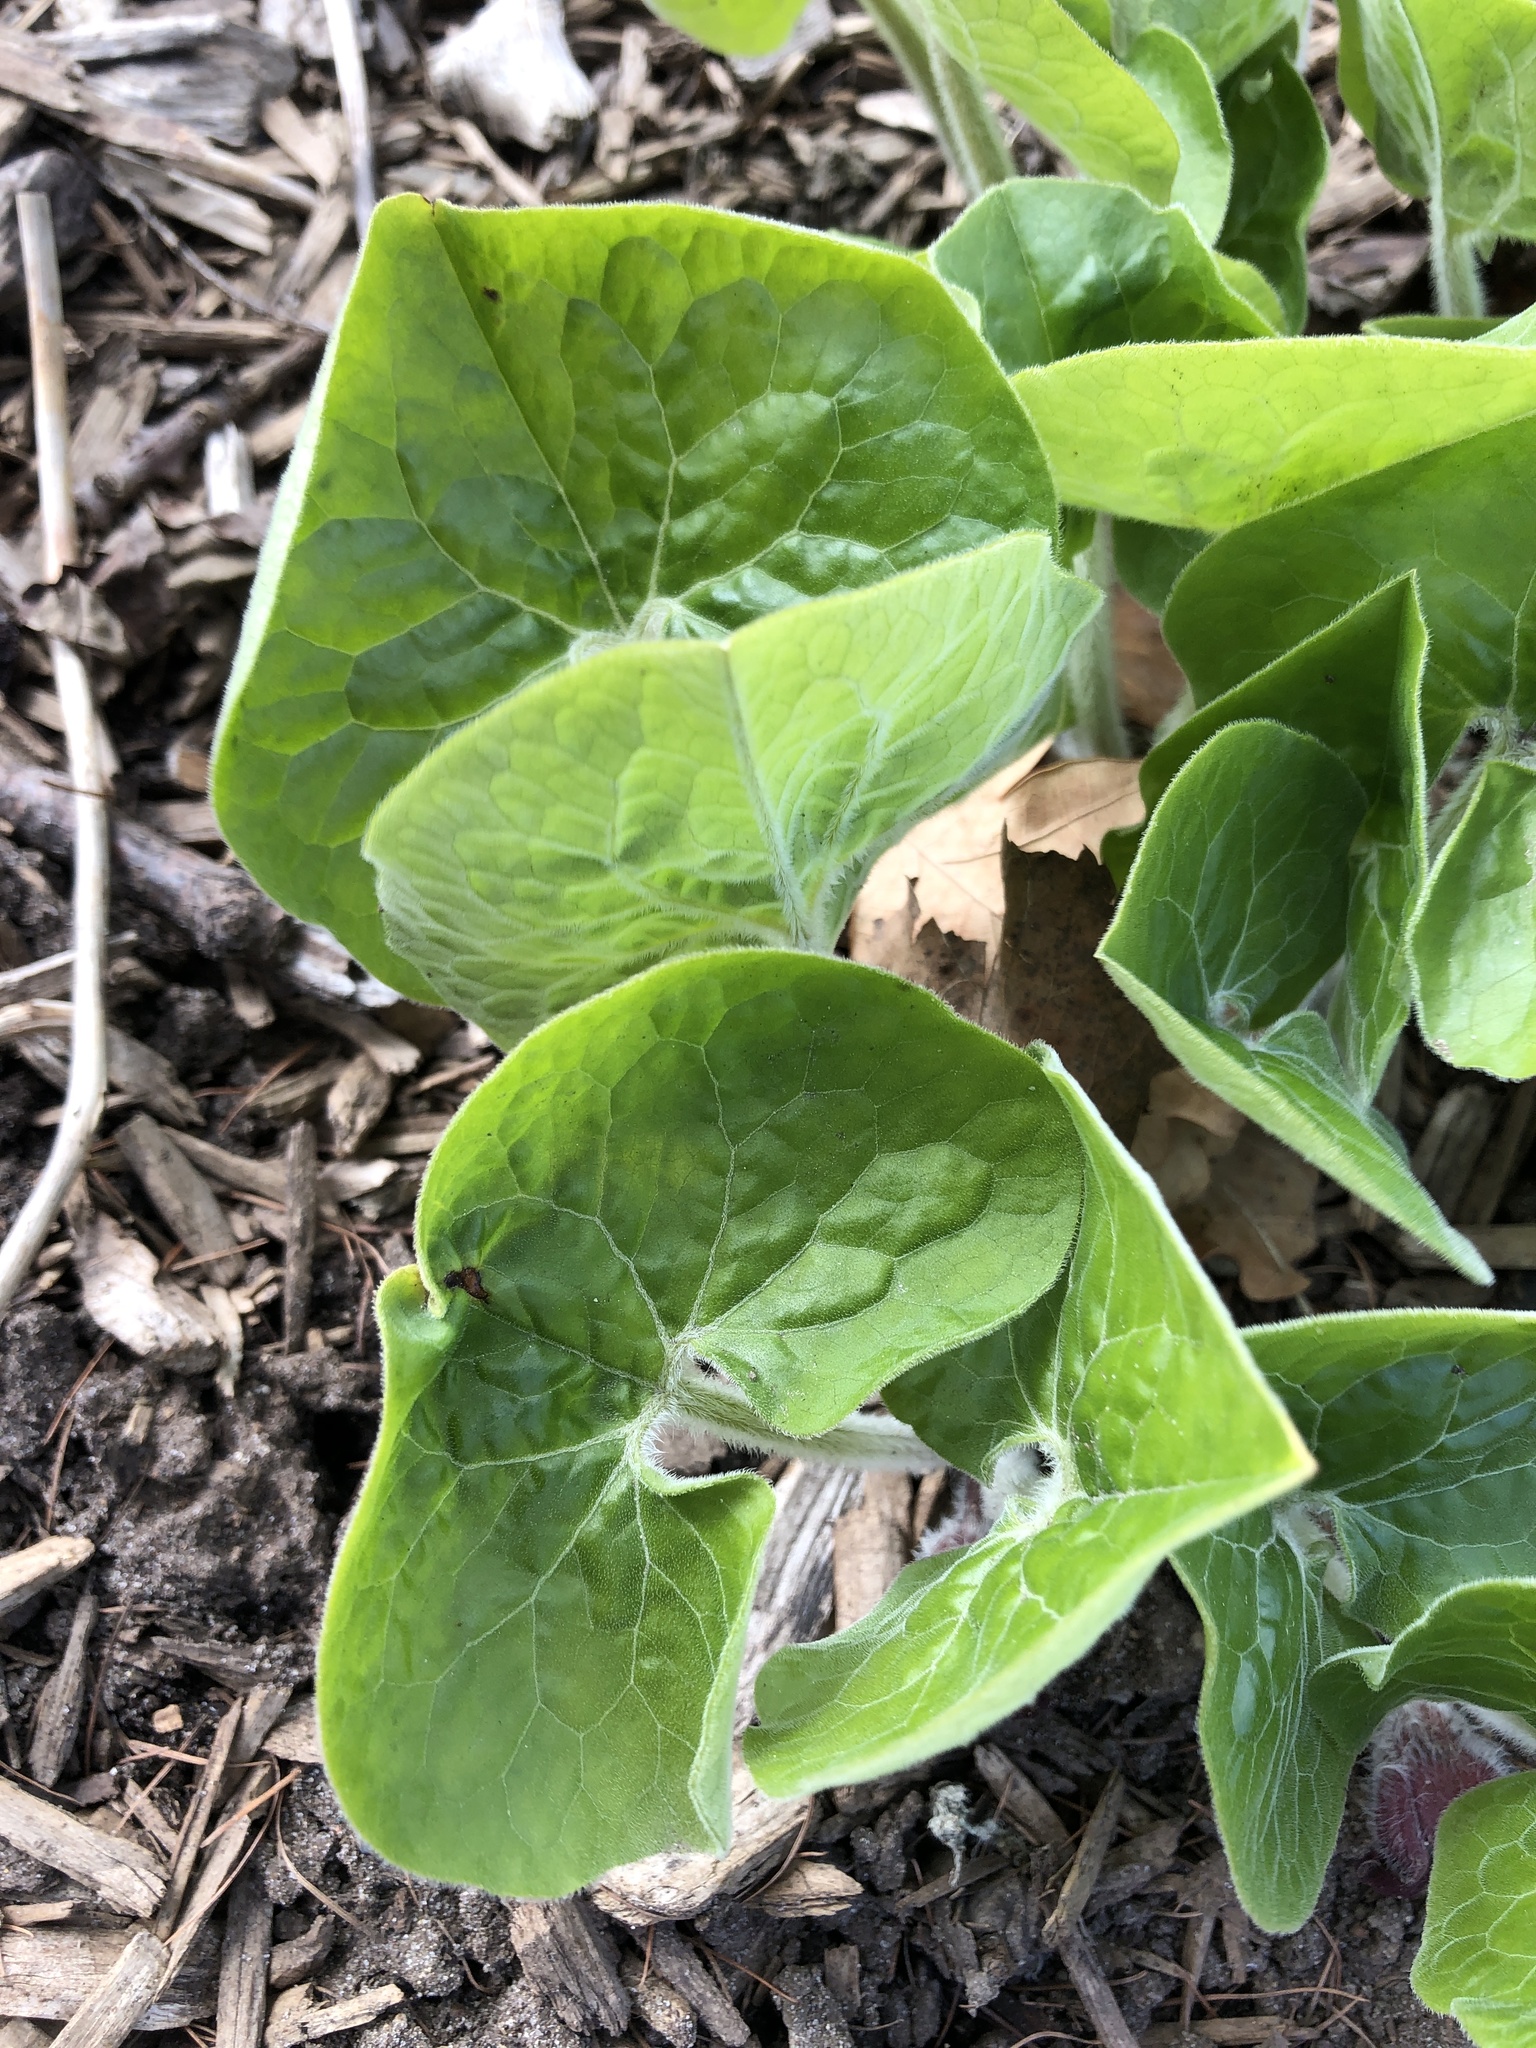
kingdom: Plantae
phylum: Tracheophyta
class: Magnoliopsida
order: Piperales
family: Aristolochiaceae
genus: Asarum
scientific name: Asarum canadense
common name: Wild ginger
